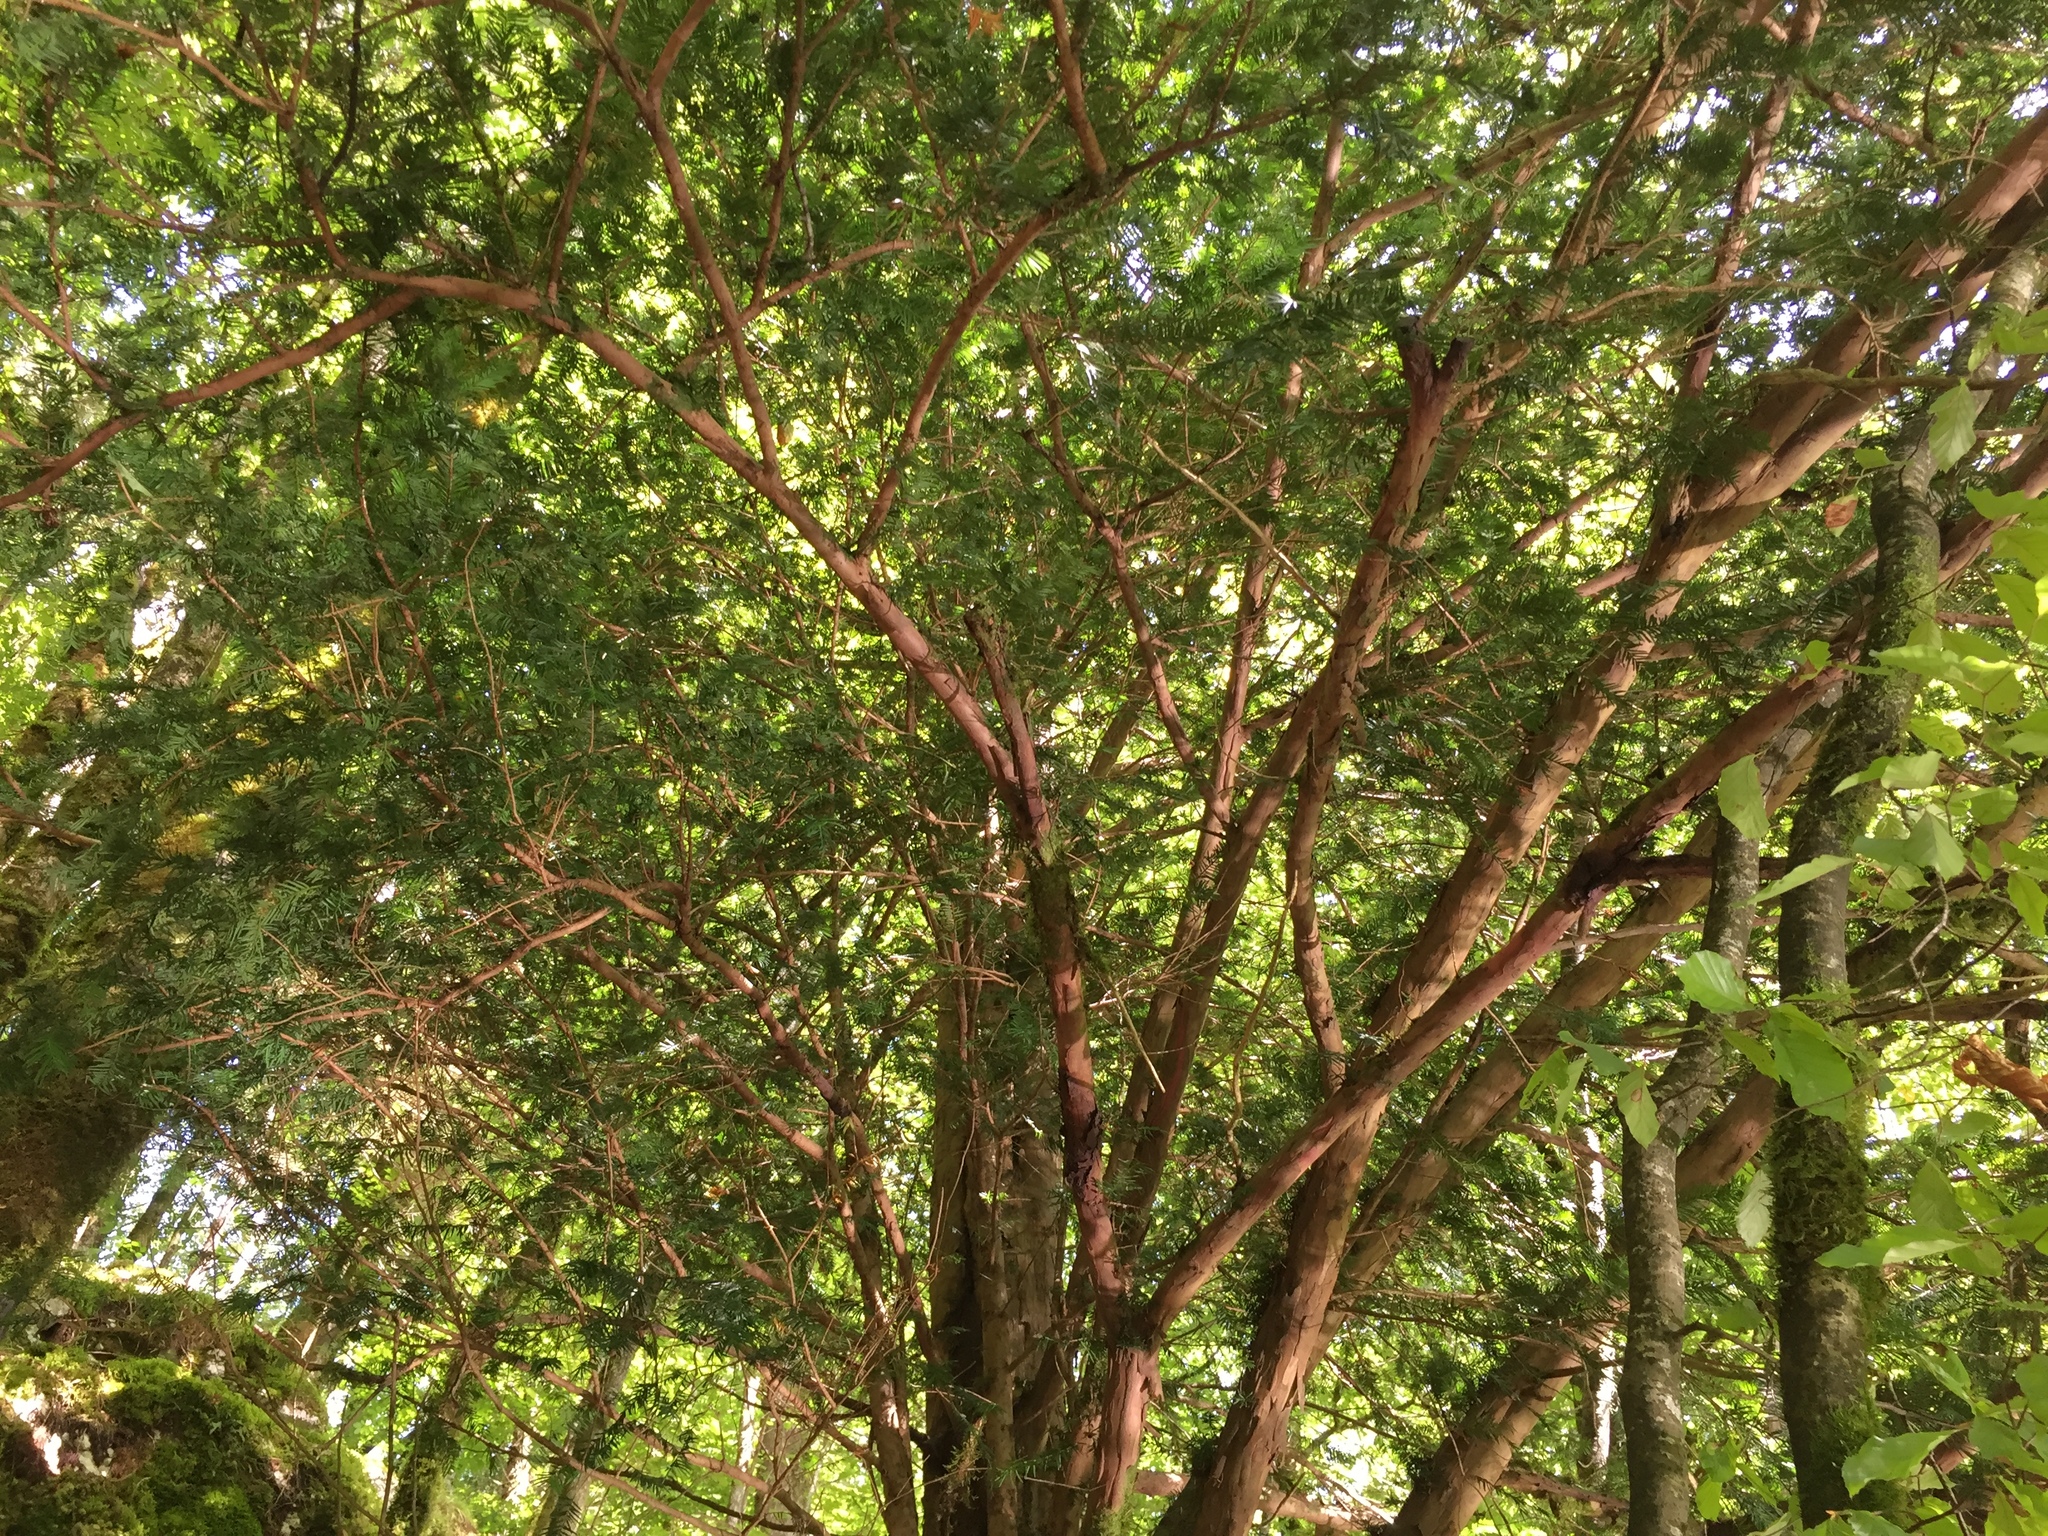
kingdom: Plantae
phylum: Tracheophyta
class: Pinopsida
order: Pinales
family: Taxaceae
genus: Taxus
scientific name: Taxus baccata
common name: Yew
